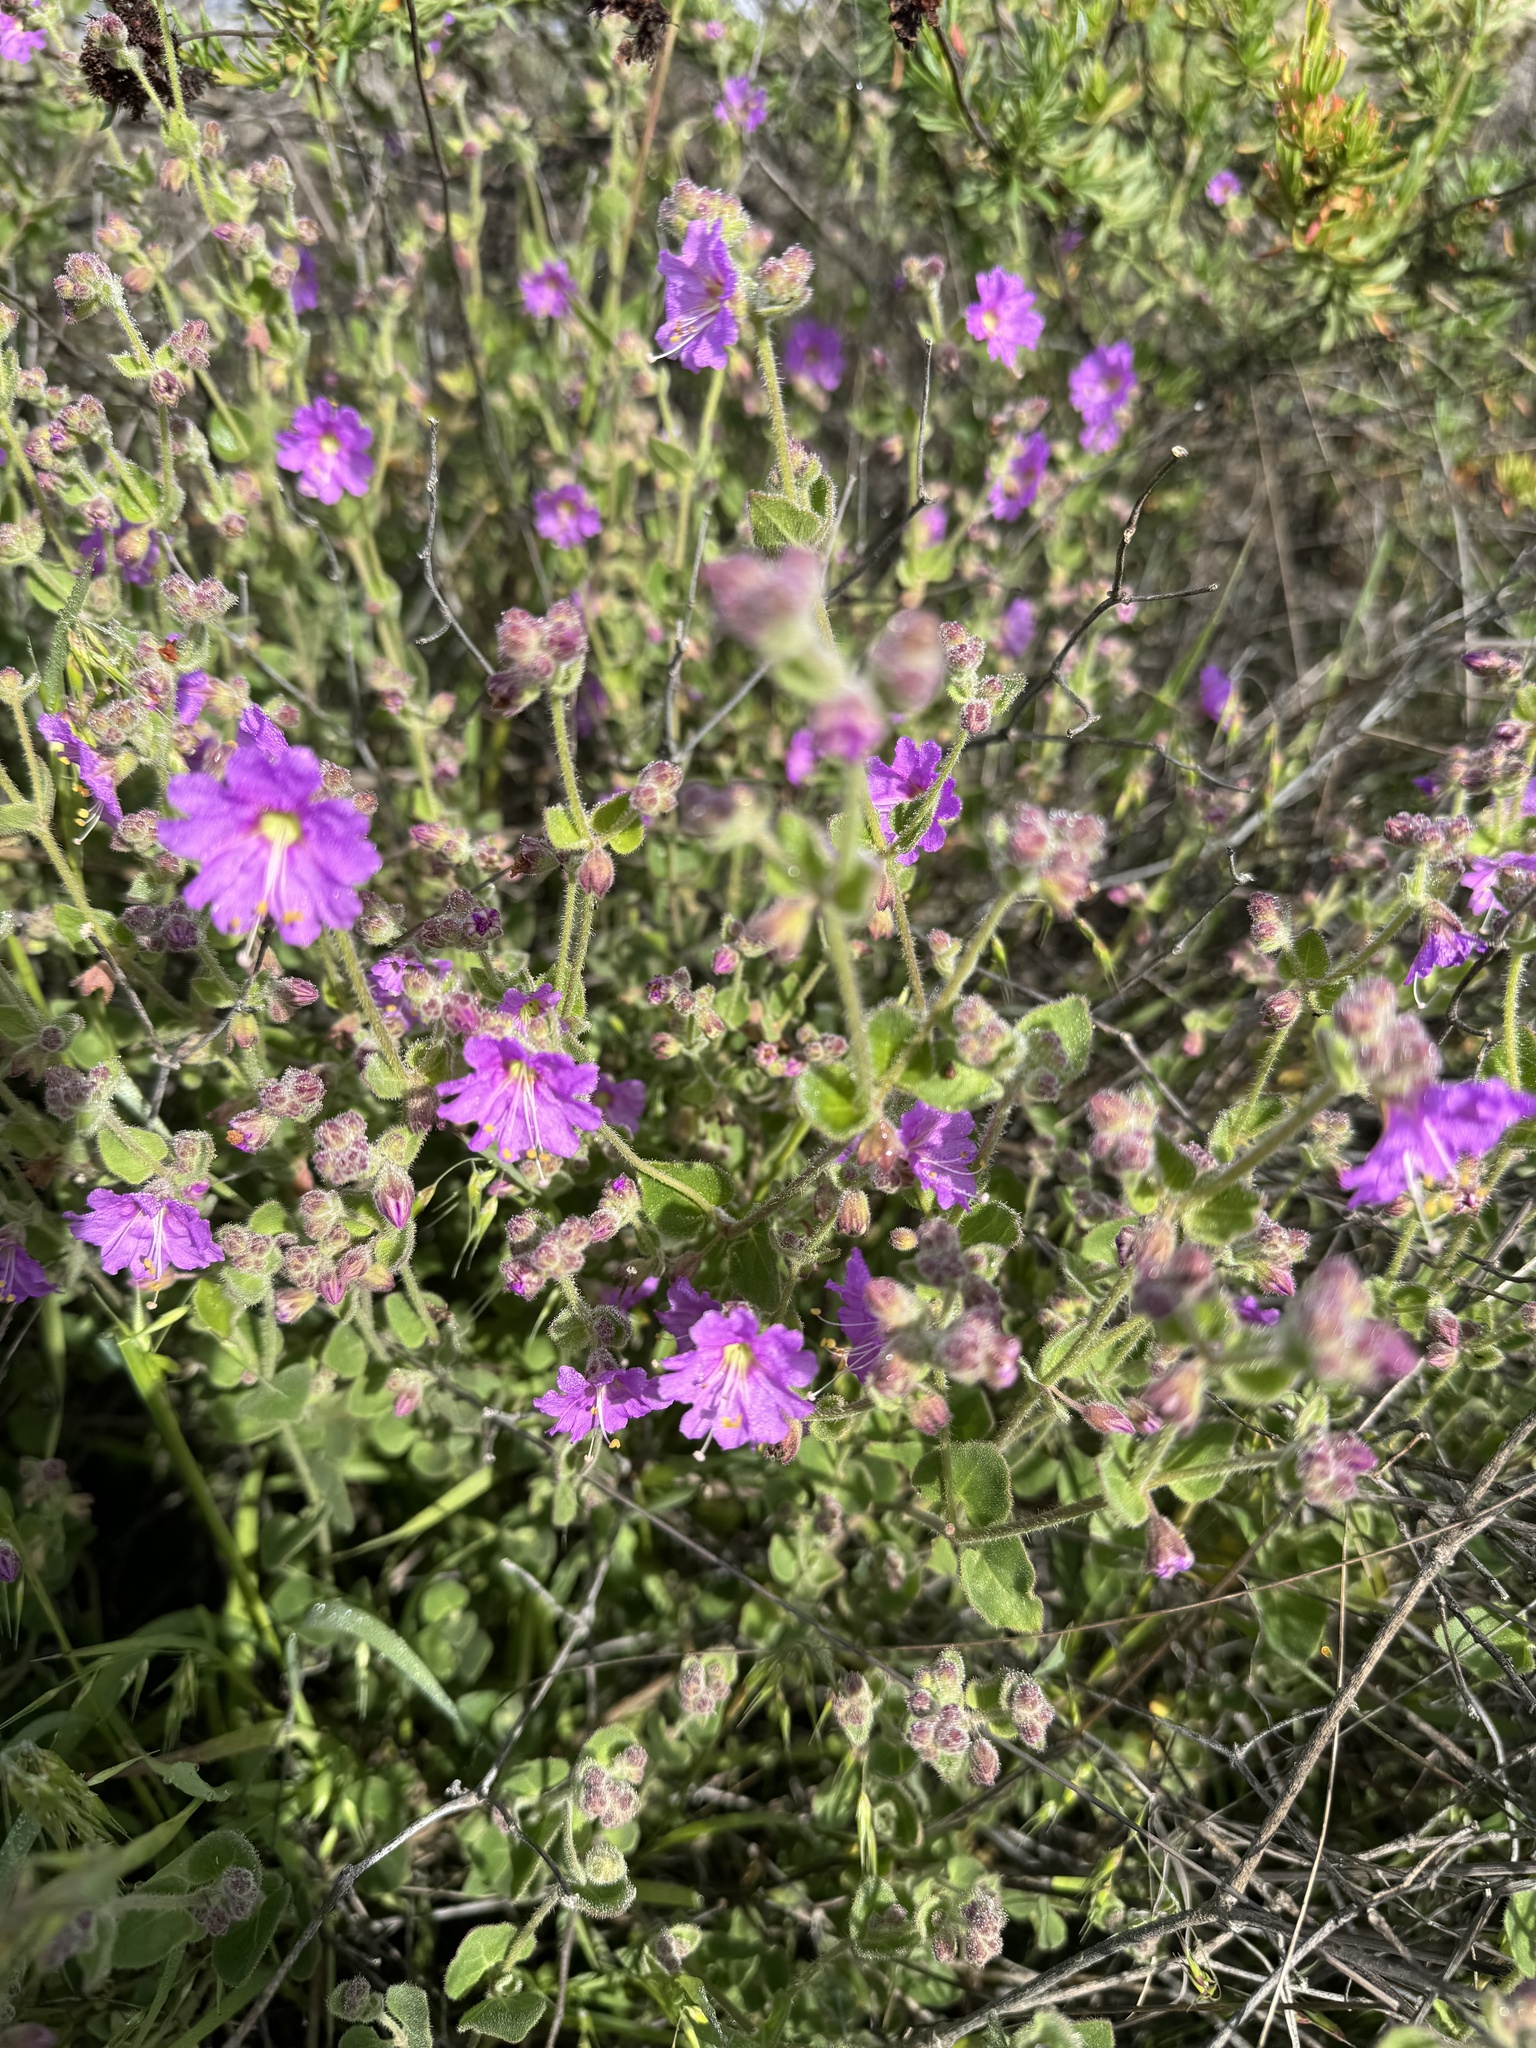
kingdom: Plantae
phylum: Tracheophyta
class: Magnoliopsida
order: Caryophyllales
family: Nyctaginaceae
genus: Mirabilis
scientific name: Mirabilis laevis
